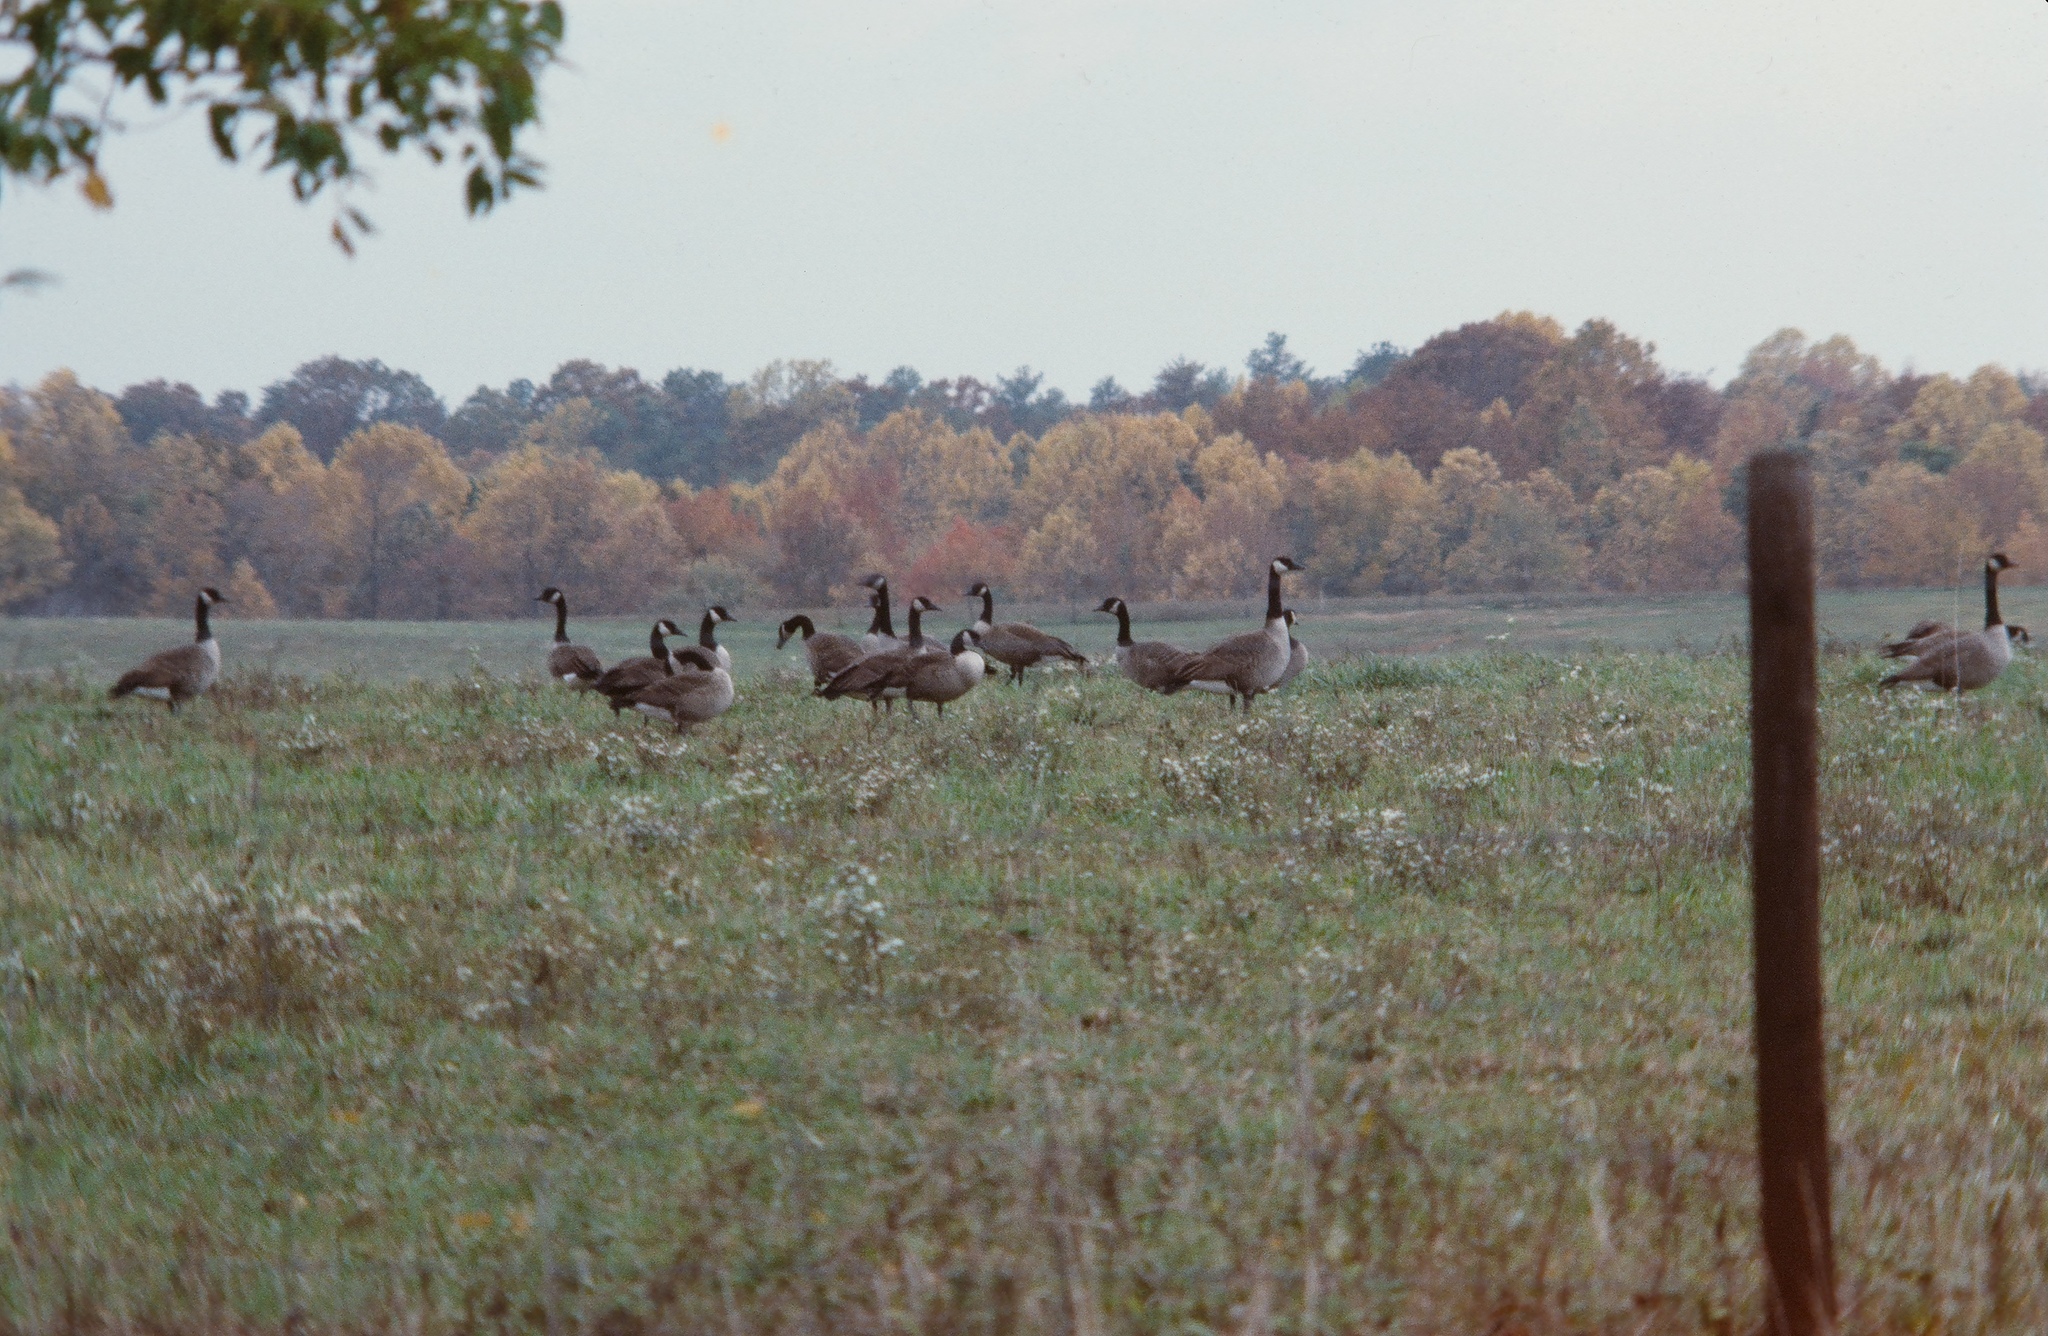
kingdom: Animalia
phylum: Chordata
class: Aves
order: Anseriformes
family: Anatidae
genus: Branta
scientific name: Branta canadensis
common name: Canada goose
